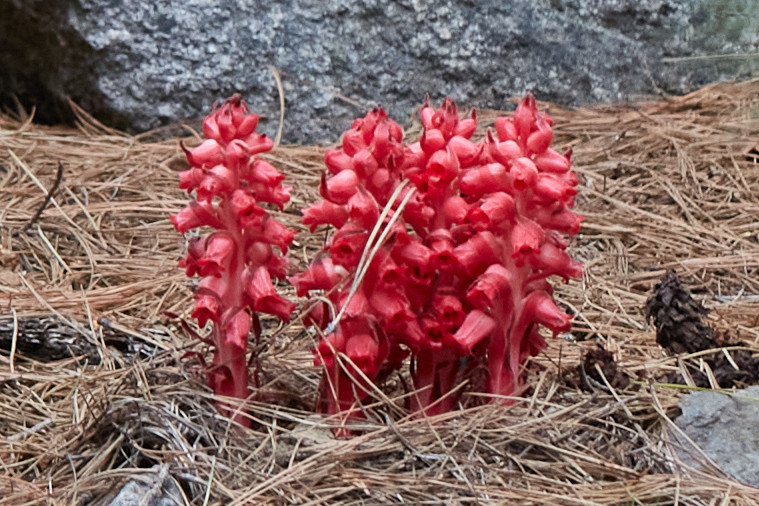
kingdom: Plantae
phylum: Tracheophyta
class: Magnoliopsida
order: Ericales
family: Ericaceae
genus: Sarcodes
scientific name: Sarcodes sanguinea
